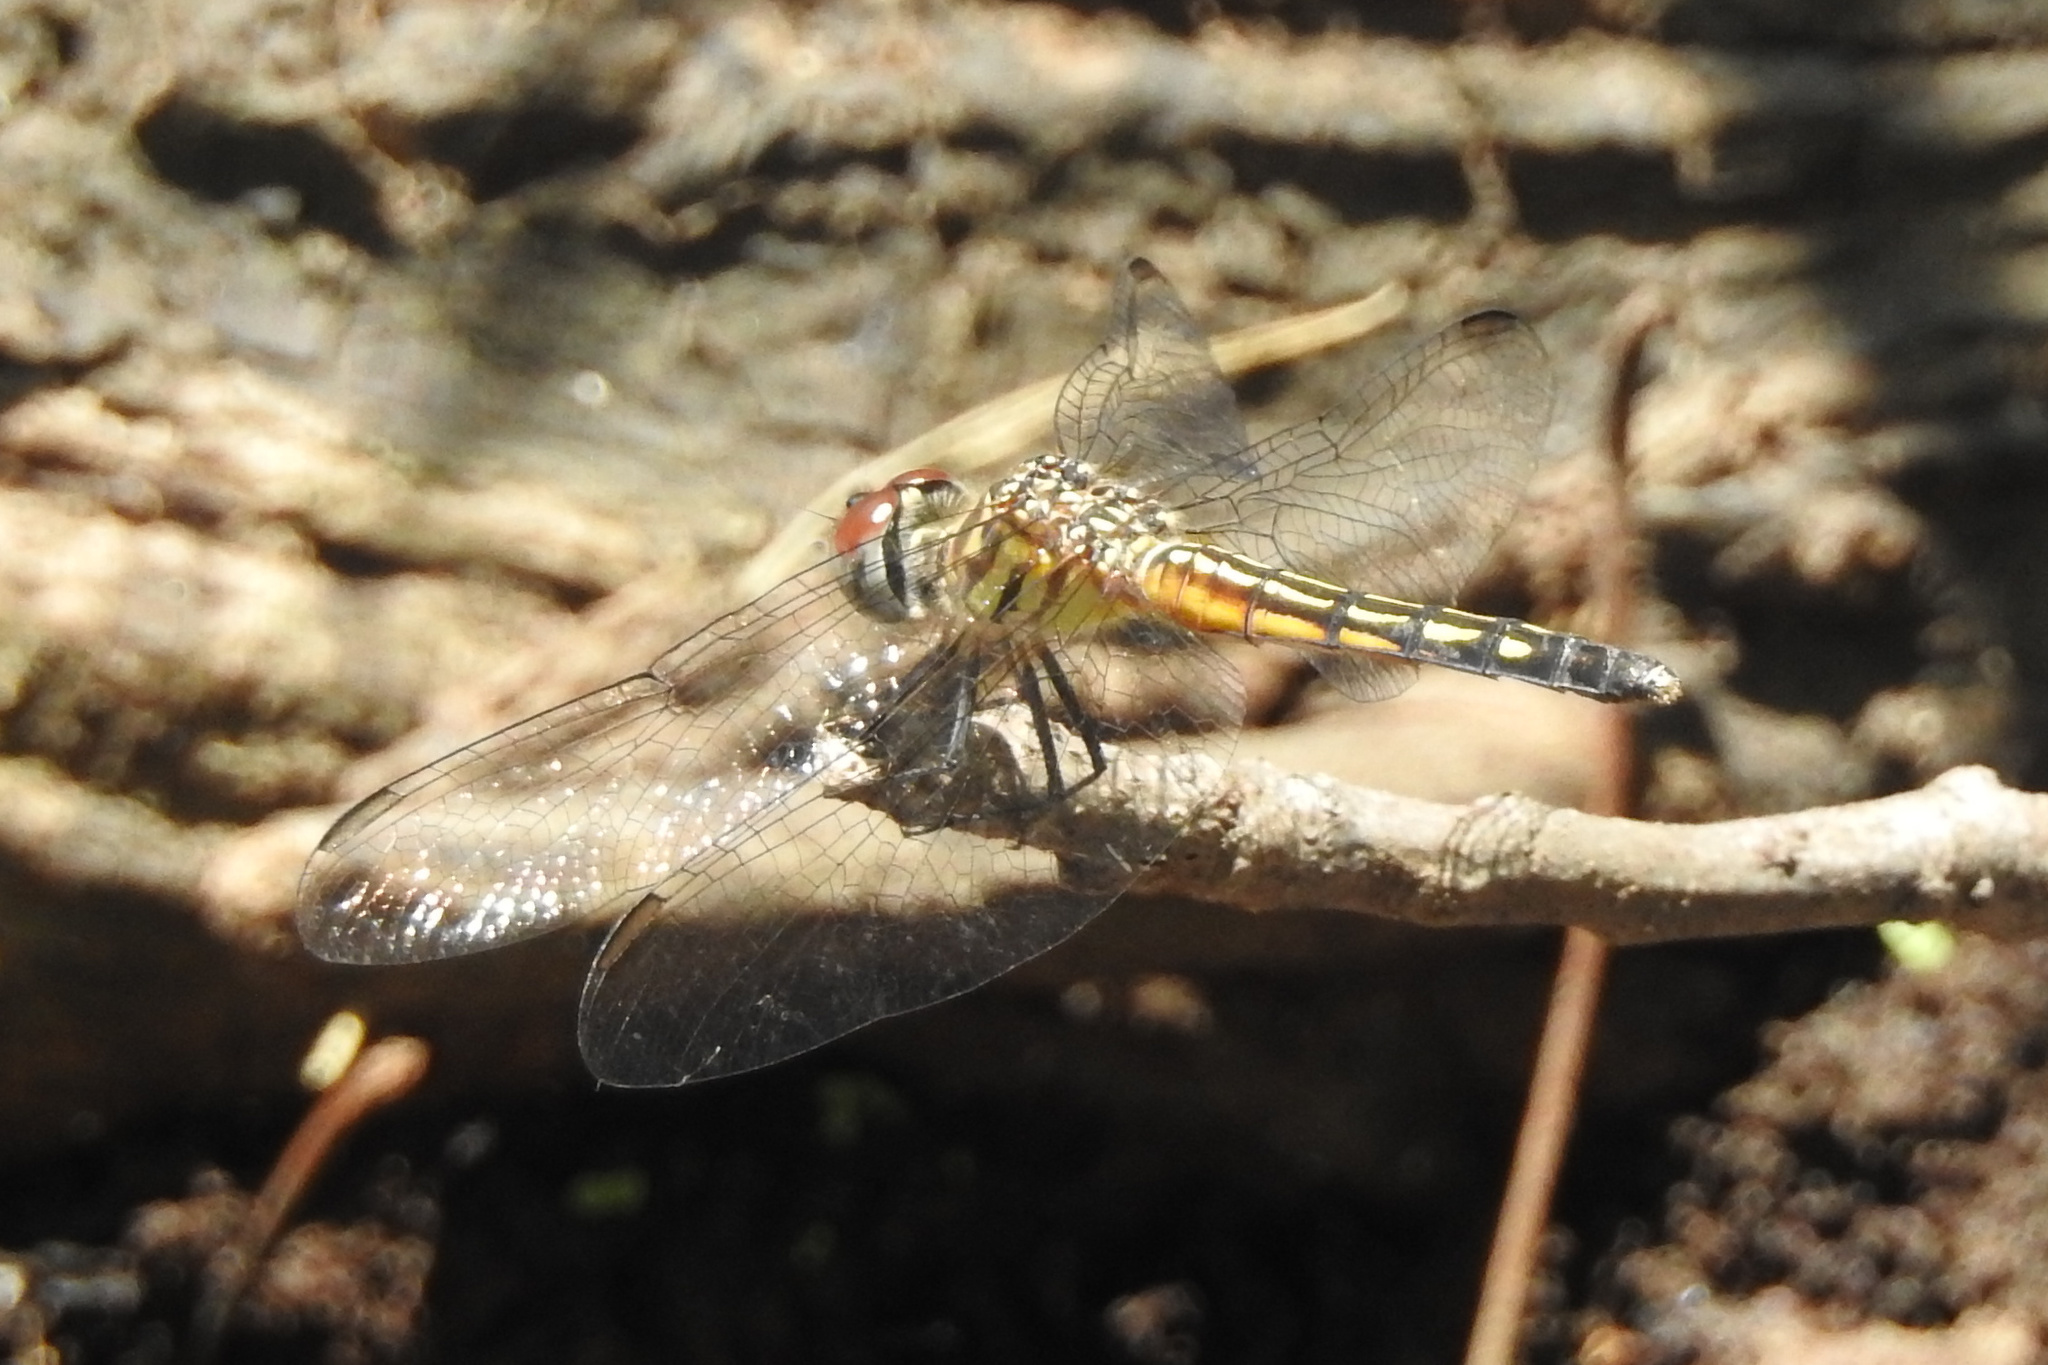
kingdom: Animalia
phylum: Arthropoda
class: Insecta
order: Odonata
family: Libellulidae
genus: Pachydiplax
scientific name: Pachydiplax longipennis
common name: Blue dasher
